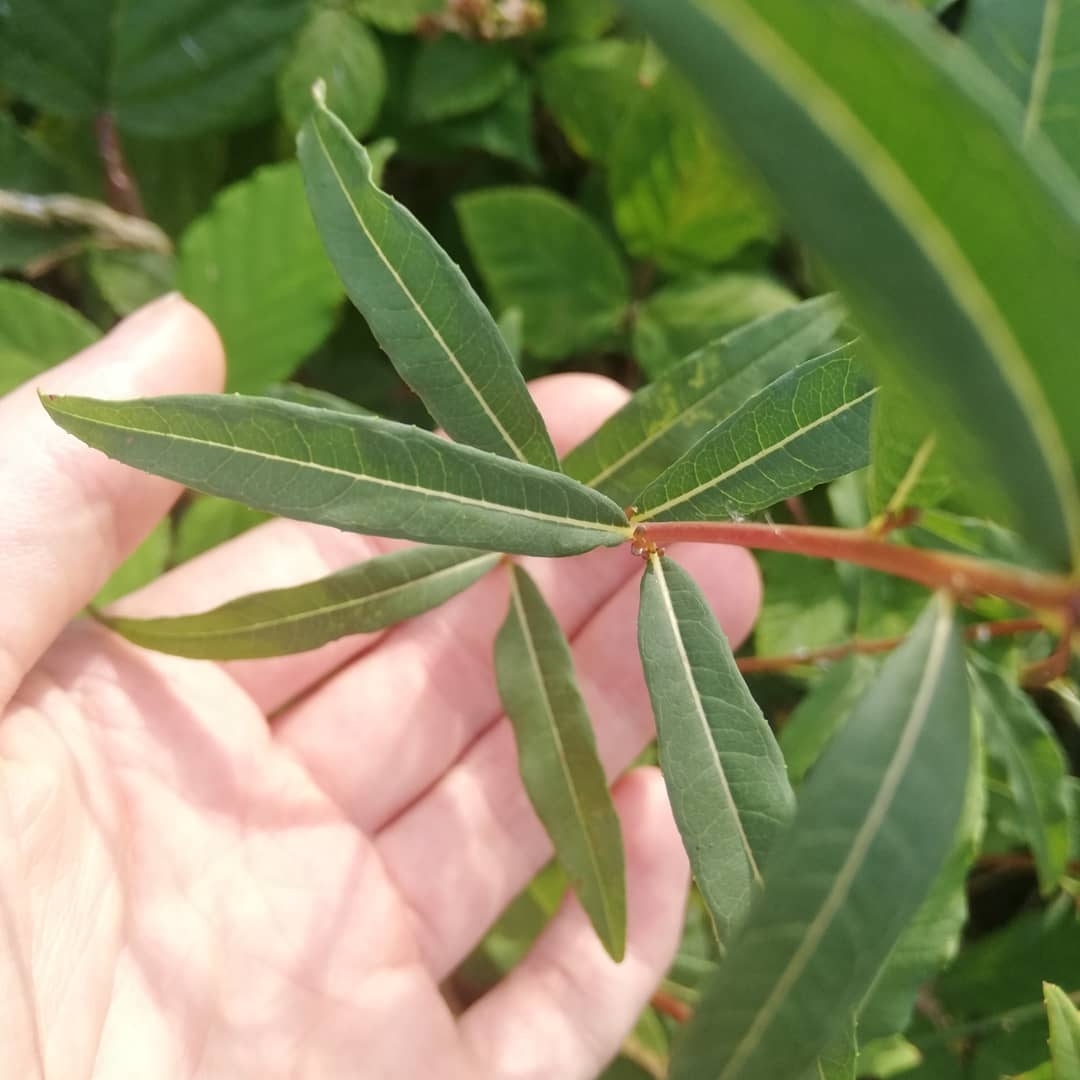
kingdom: Plantae
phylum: Tracheophyta
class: Magnoliopsida
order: Myrtales
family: Onagraceae
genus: Chamaenerion
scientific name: Chamaenerion angustifolium
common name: Fireweed
